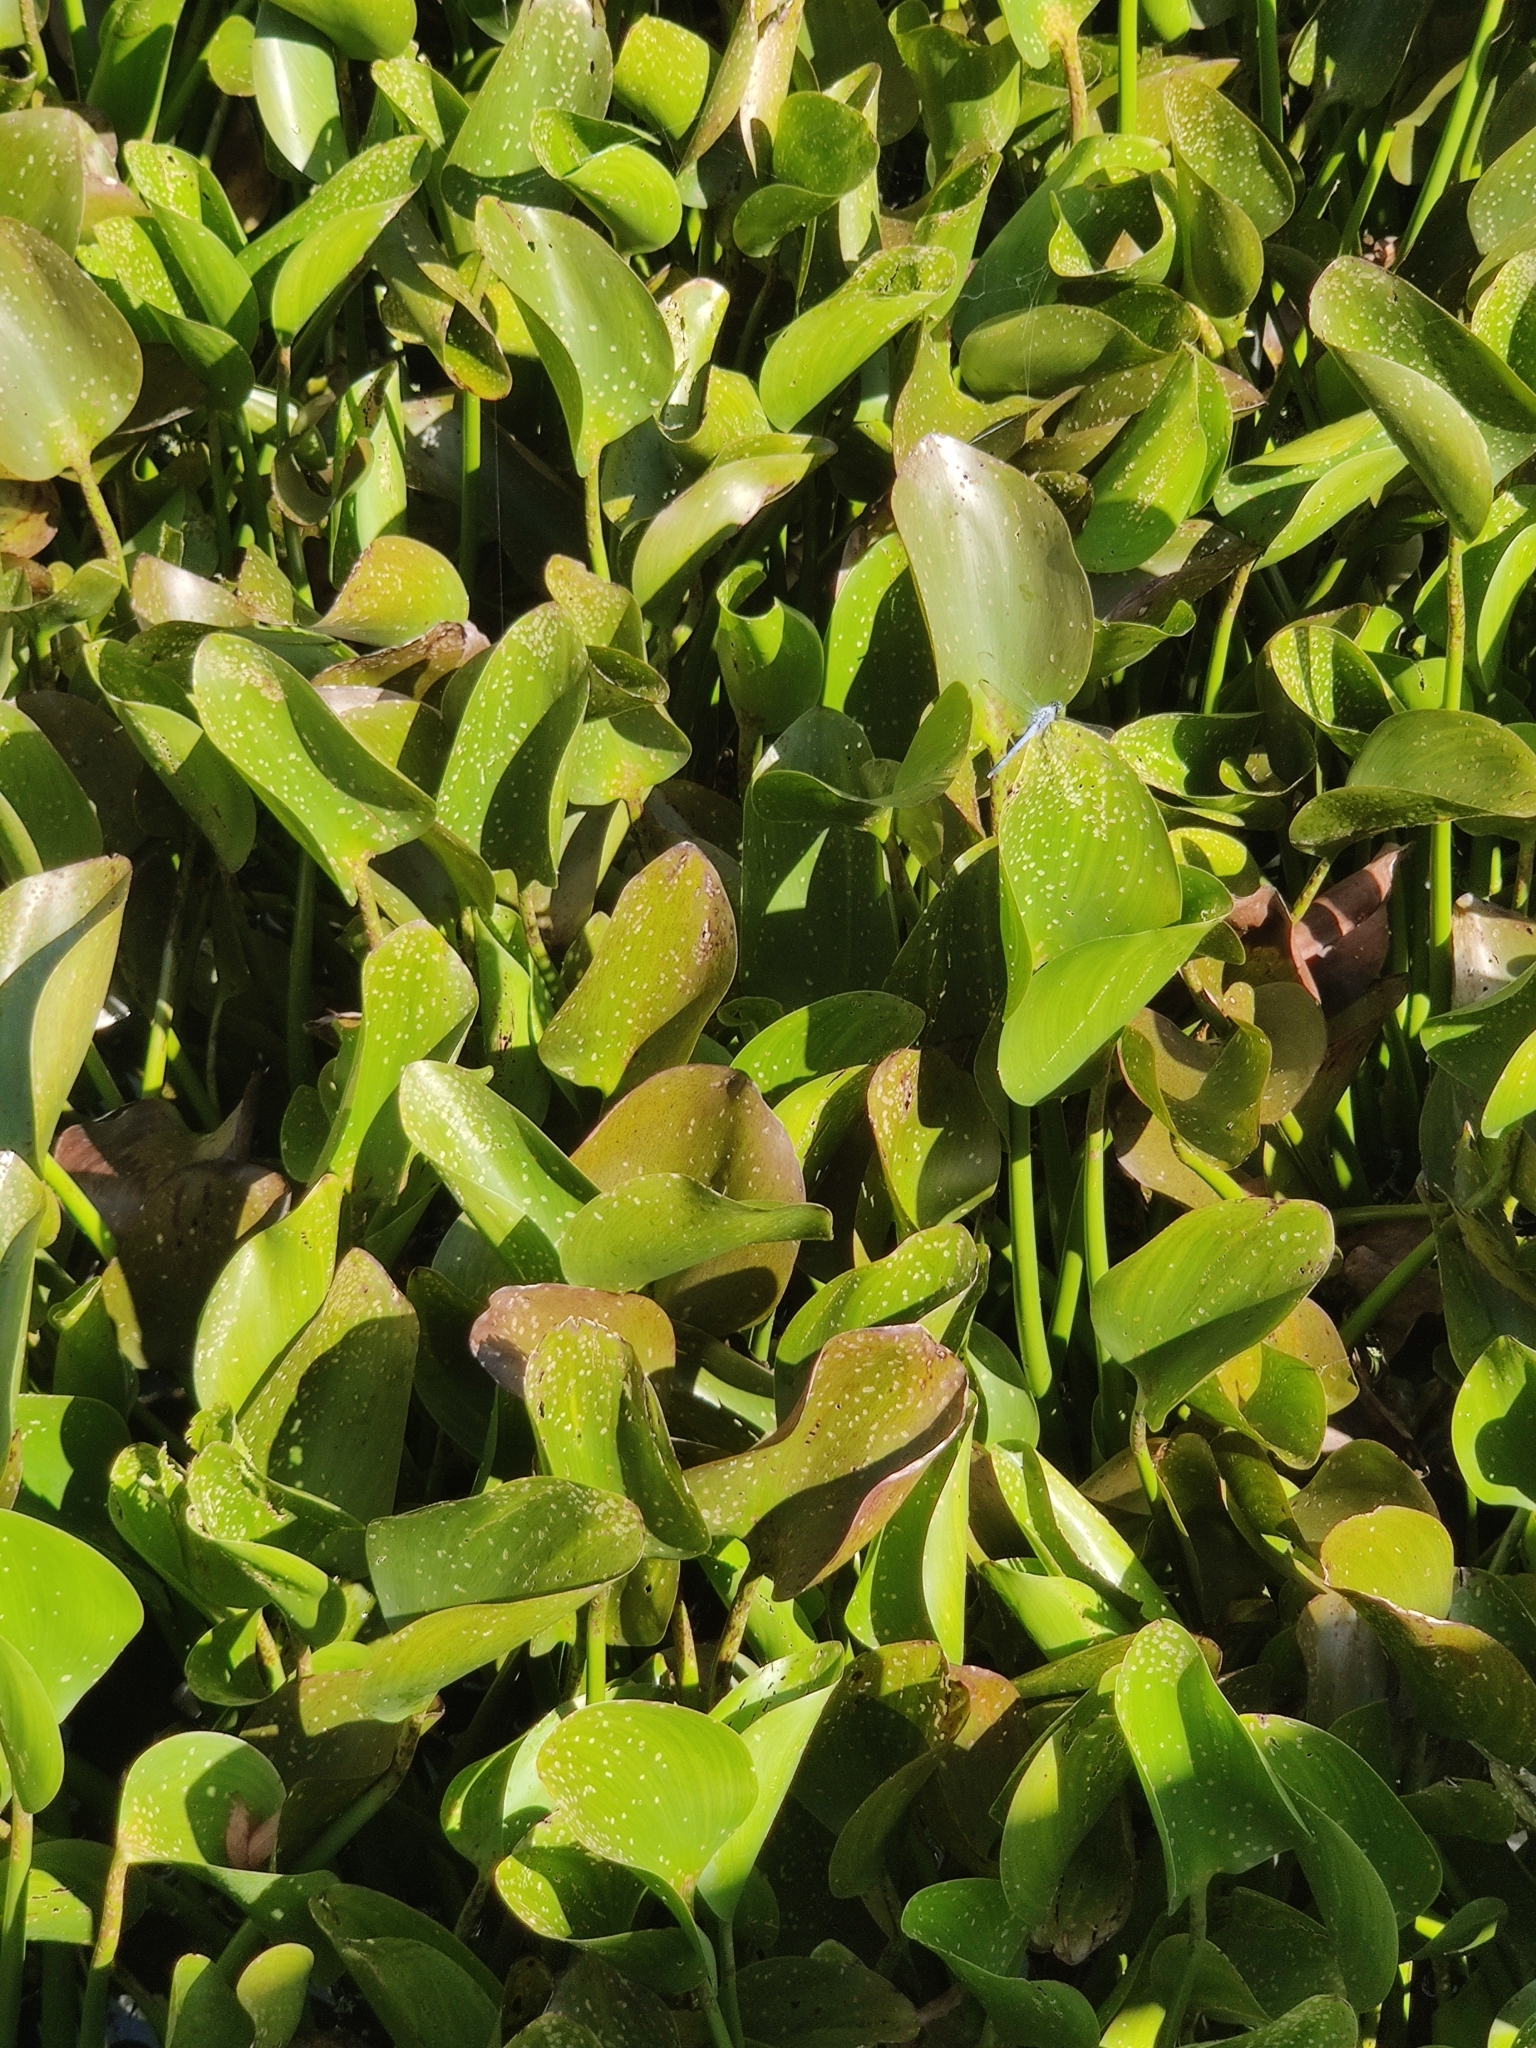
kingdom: Plantae
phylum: Tracheophyta
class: Liliopsida
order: Commelinales
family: Pontederiaceae
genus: Pontederia
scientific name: Pontederia crassipes
